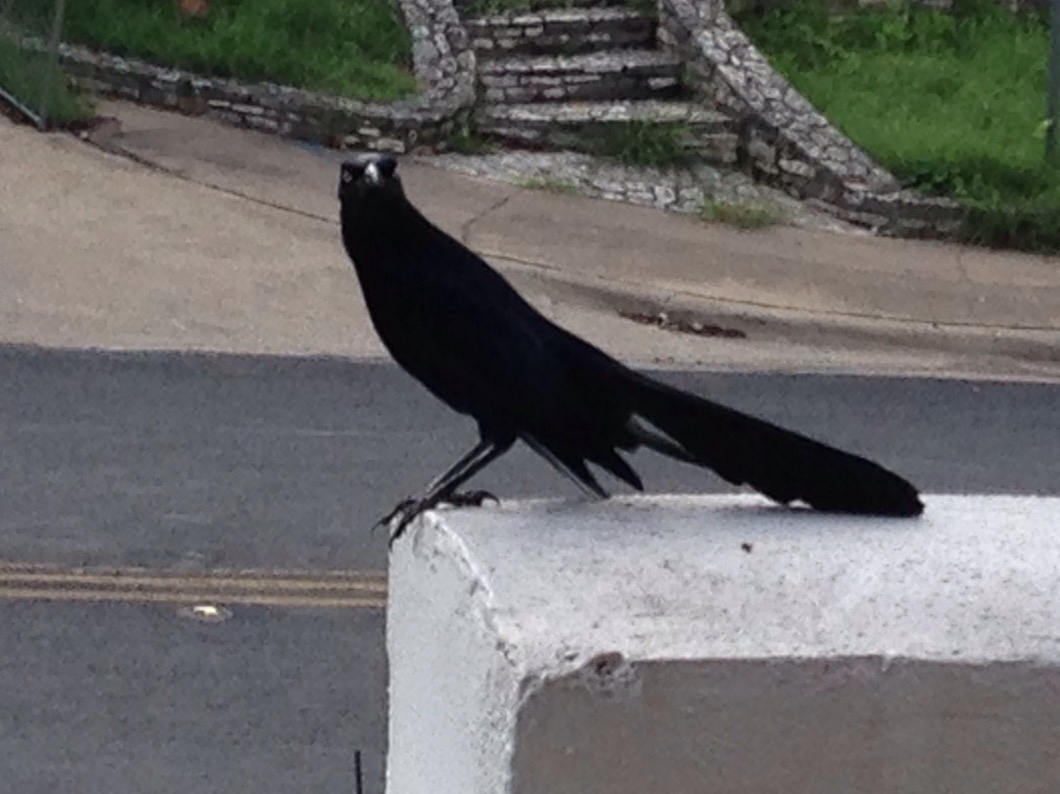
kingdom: Animalia
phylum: Chordata
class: Aves
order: Passeriformes
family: Icteridae
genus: Quiscalus
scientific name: Quiscalus mexicanus
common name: Great-tailed grackle
